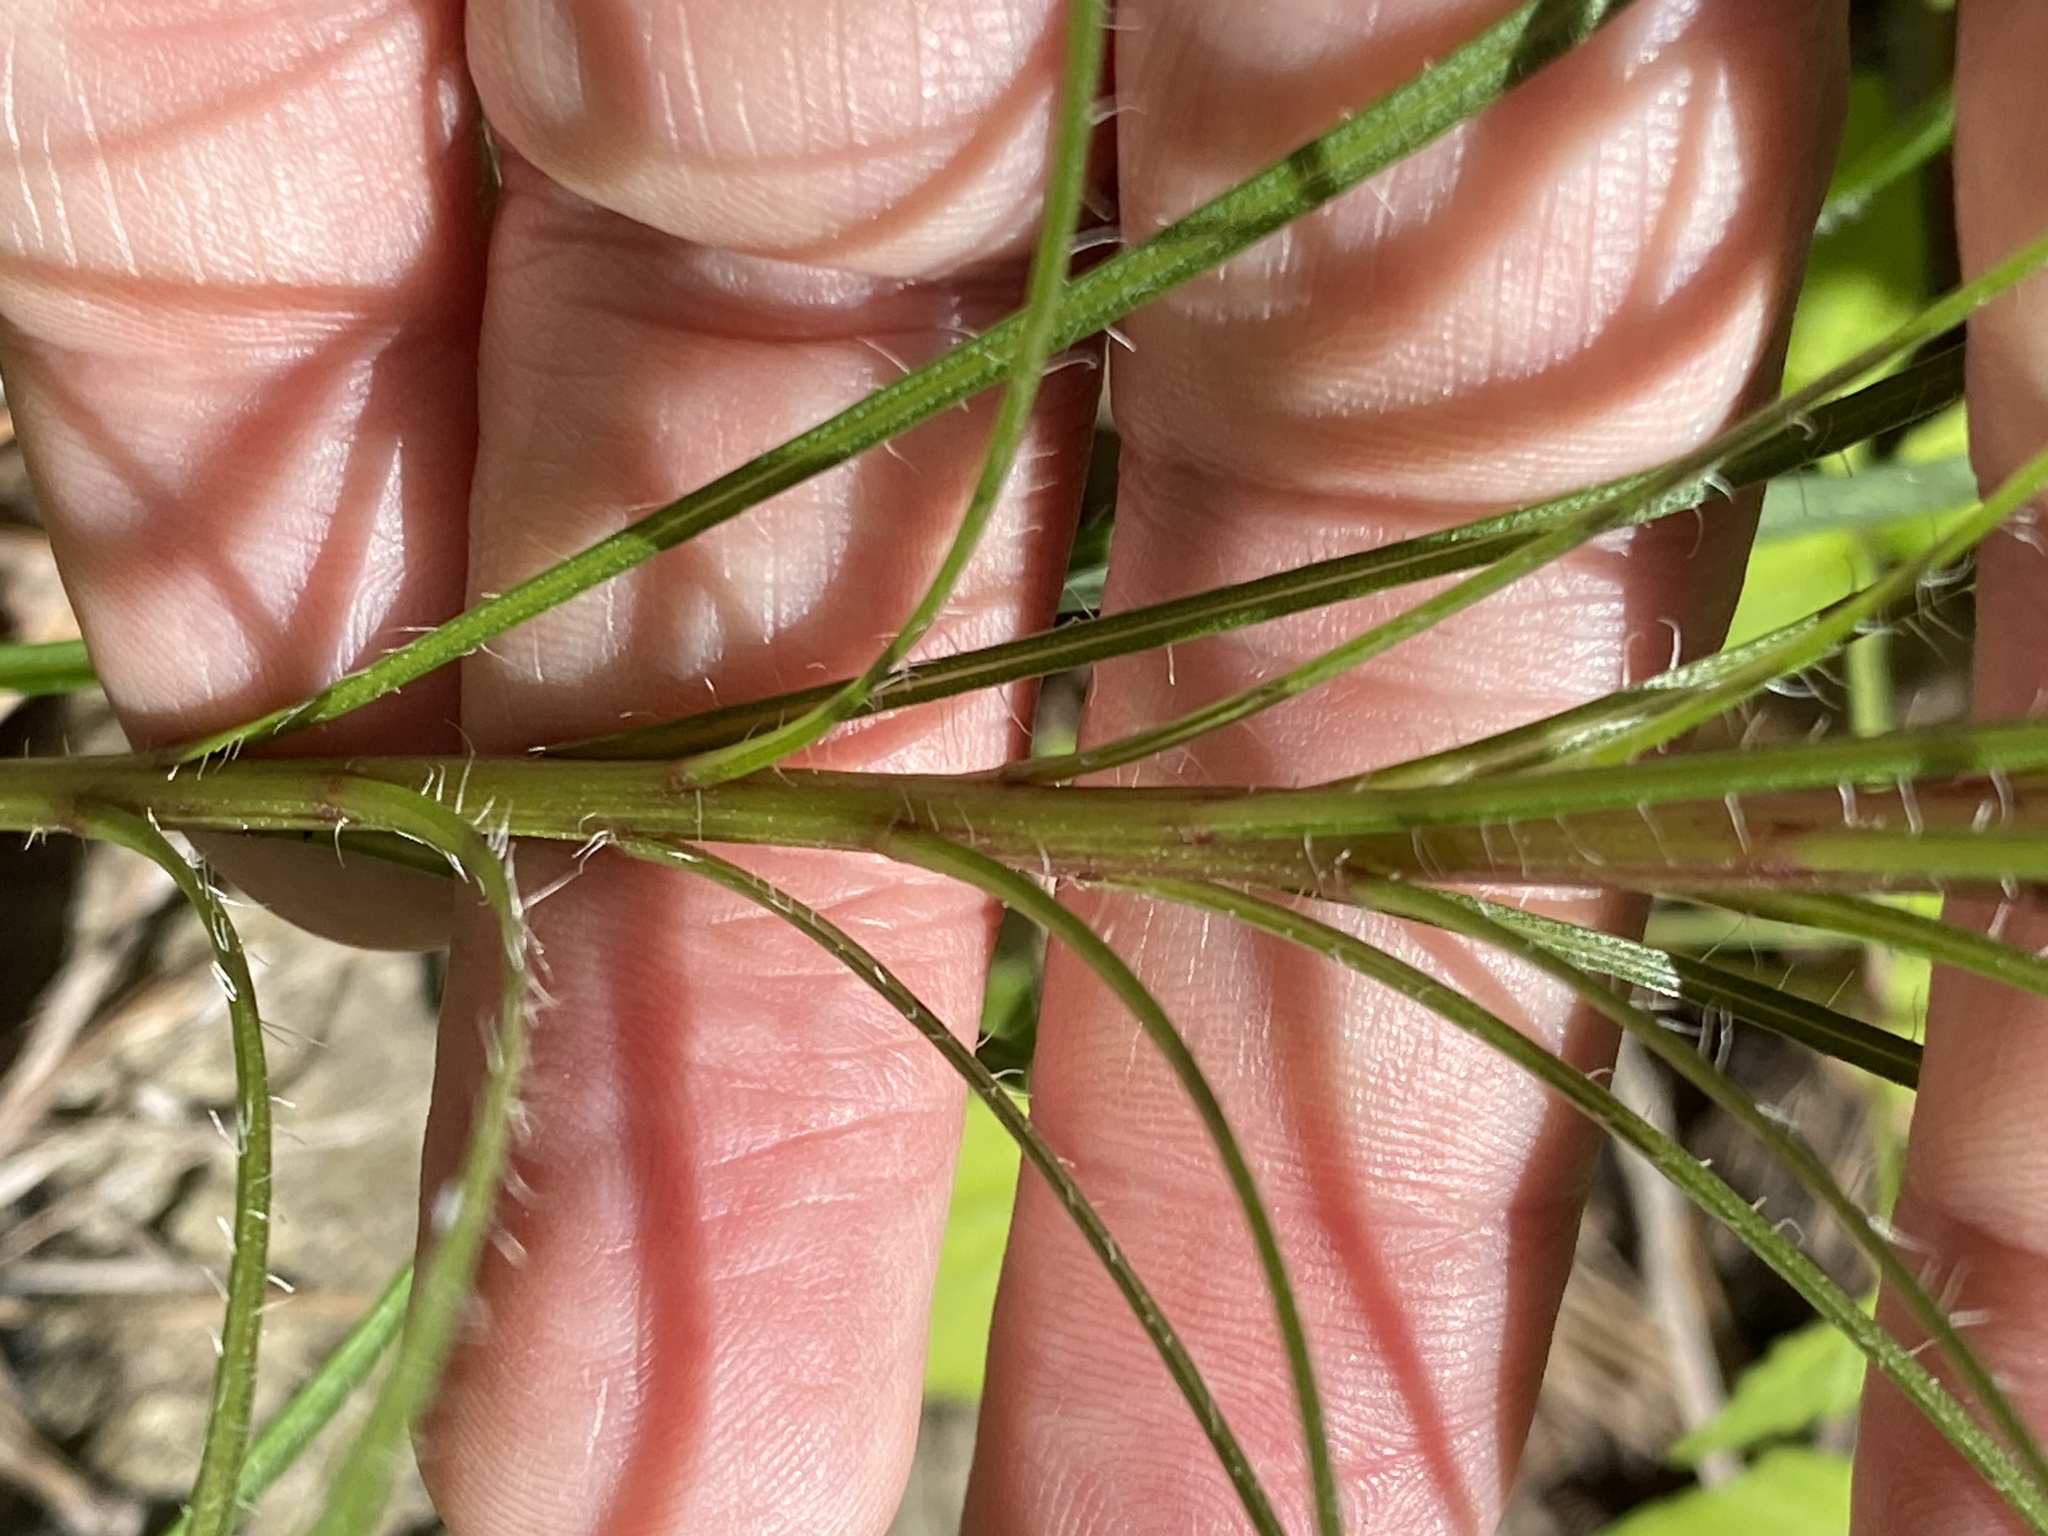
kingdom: Plantae
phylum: Tracheophyta
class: Magnoliopsida
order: Asterales
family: Asteraceae
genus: Liatris
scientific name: Liatris pilosa
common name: Grass-leaf gayfeather
